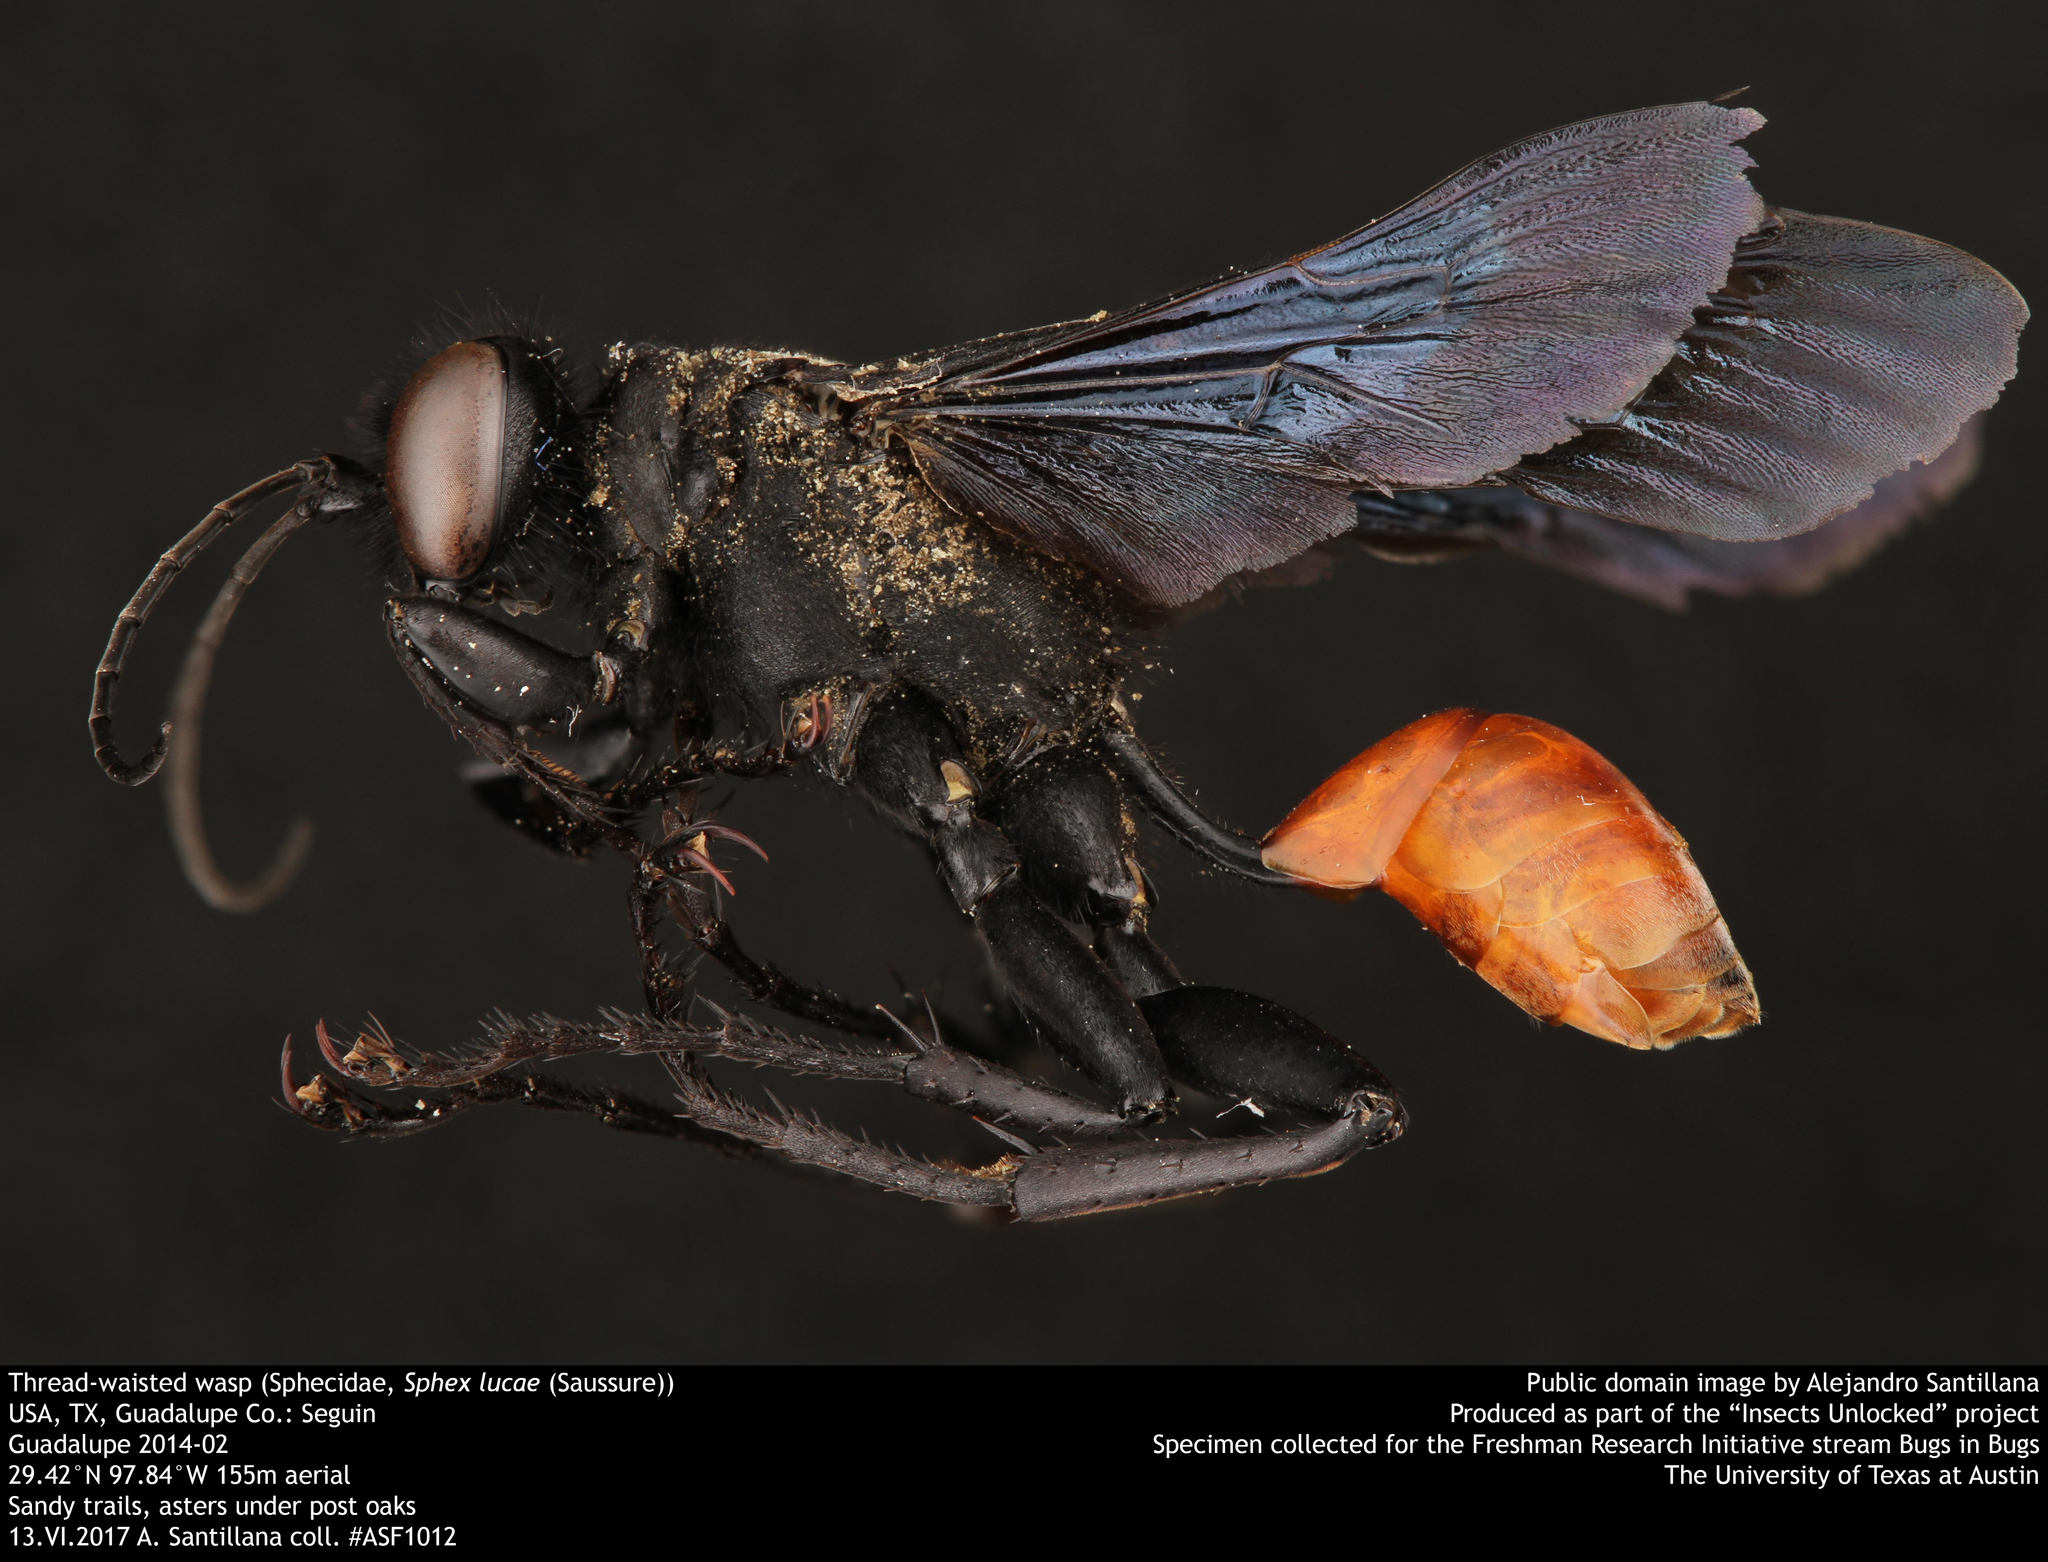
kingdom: Animalia
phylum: Arthropoda
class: Insecta
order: Hymenoptera
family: Sphecidae
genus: Sphex
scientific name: Sphex lucae
